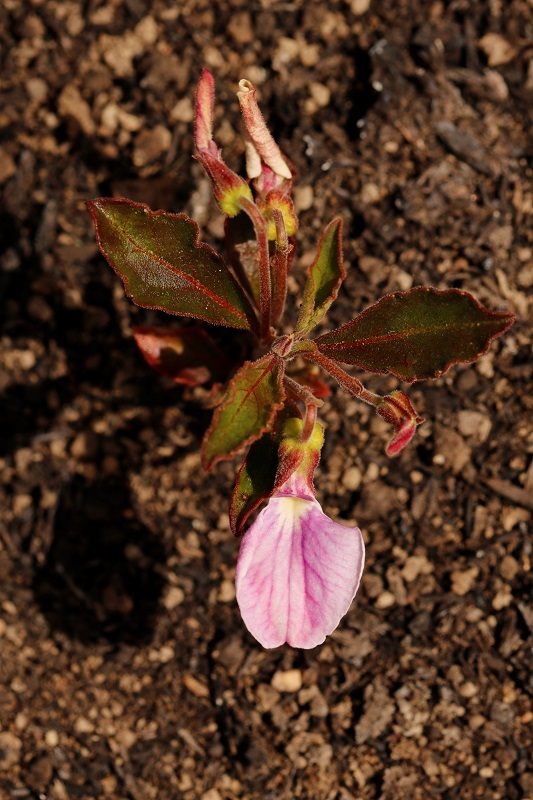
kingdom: Plantae
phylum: Tracheophyta
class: Magnoliopsida
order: Malpighiales
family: Violaceae
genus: Hybanthus
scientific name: Hybanthus capensis
